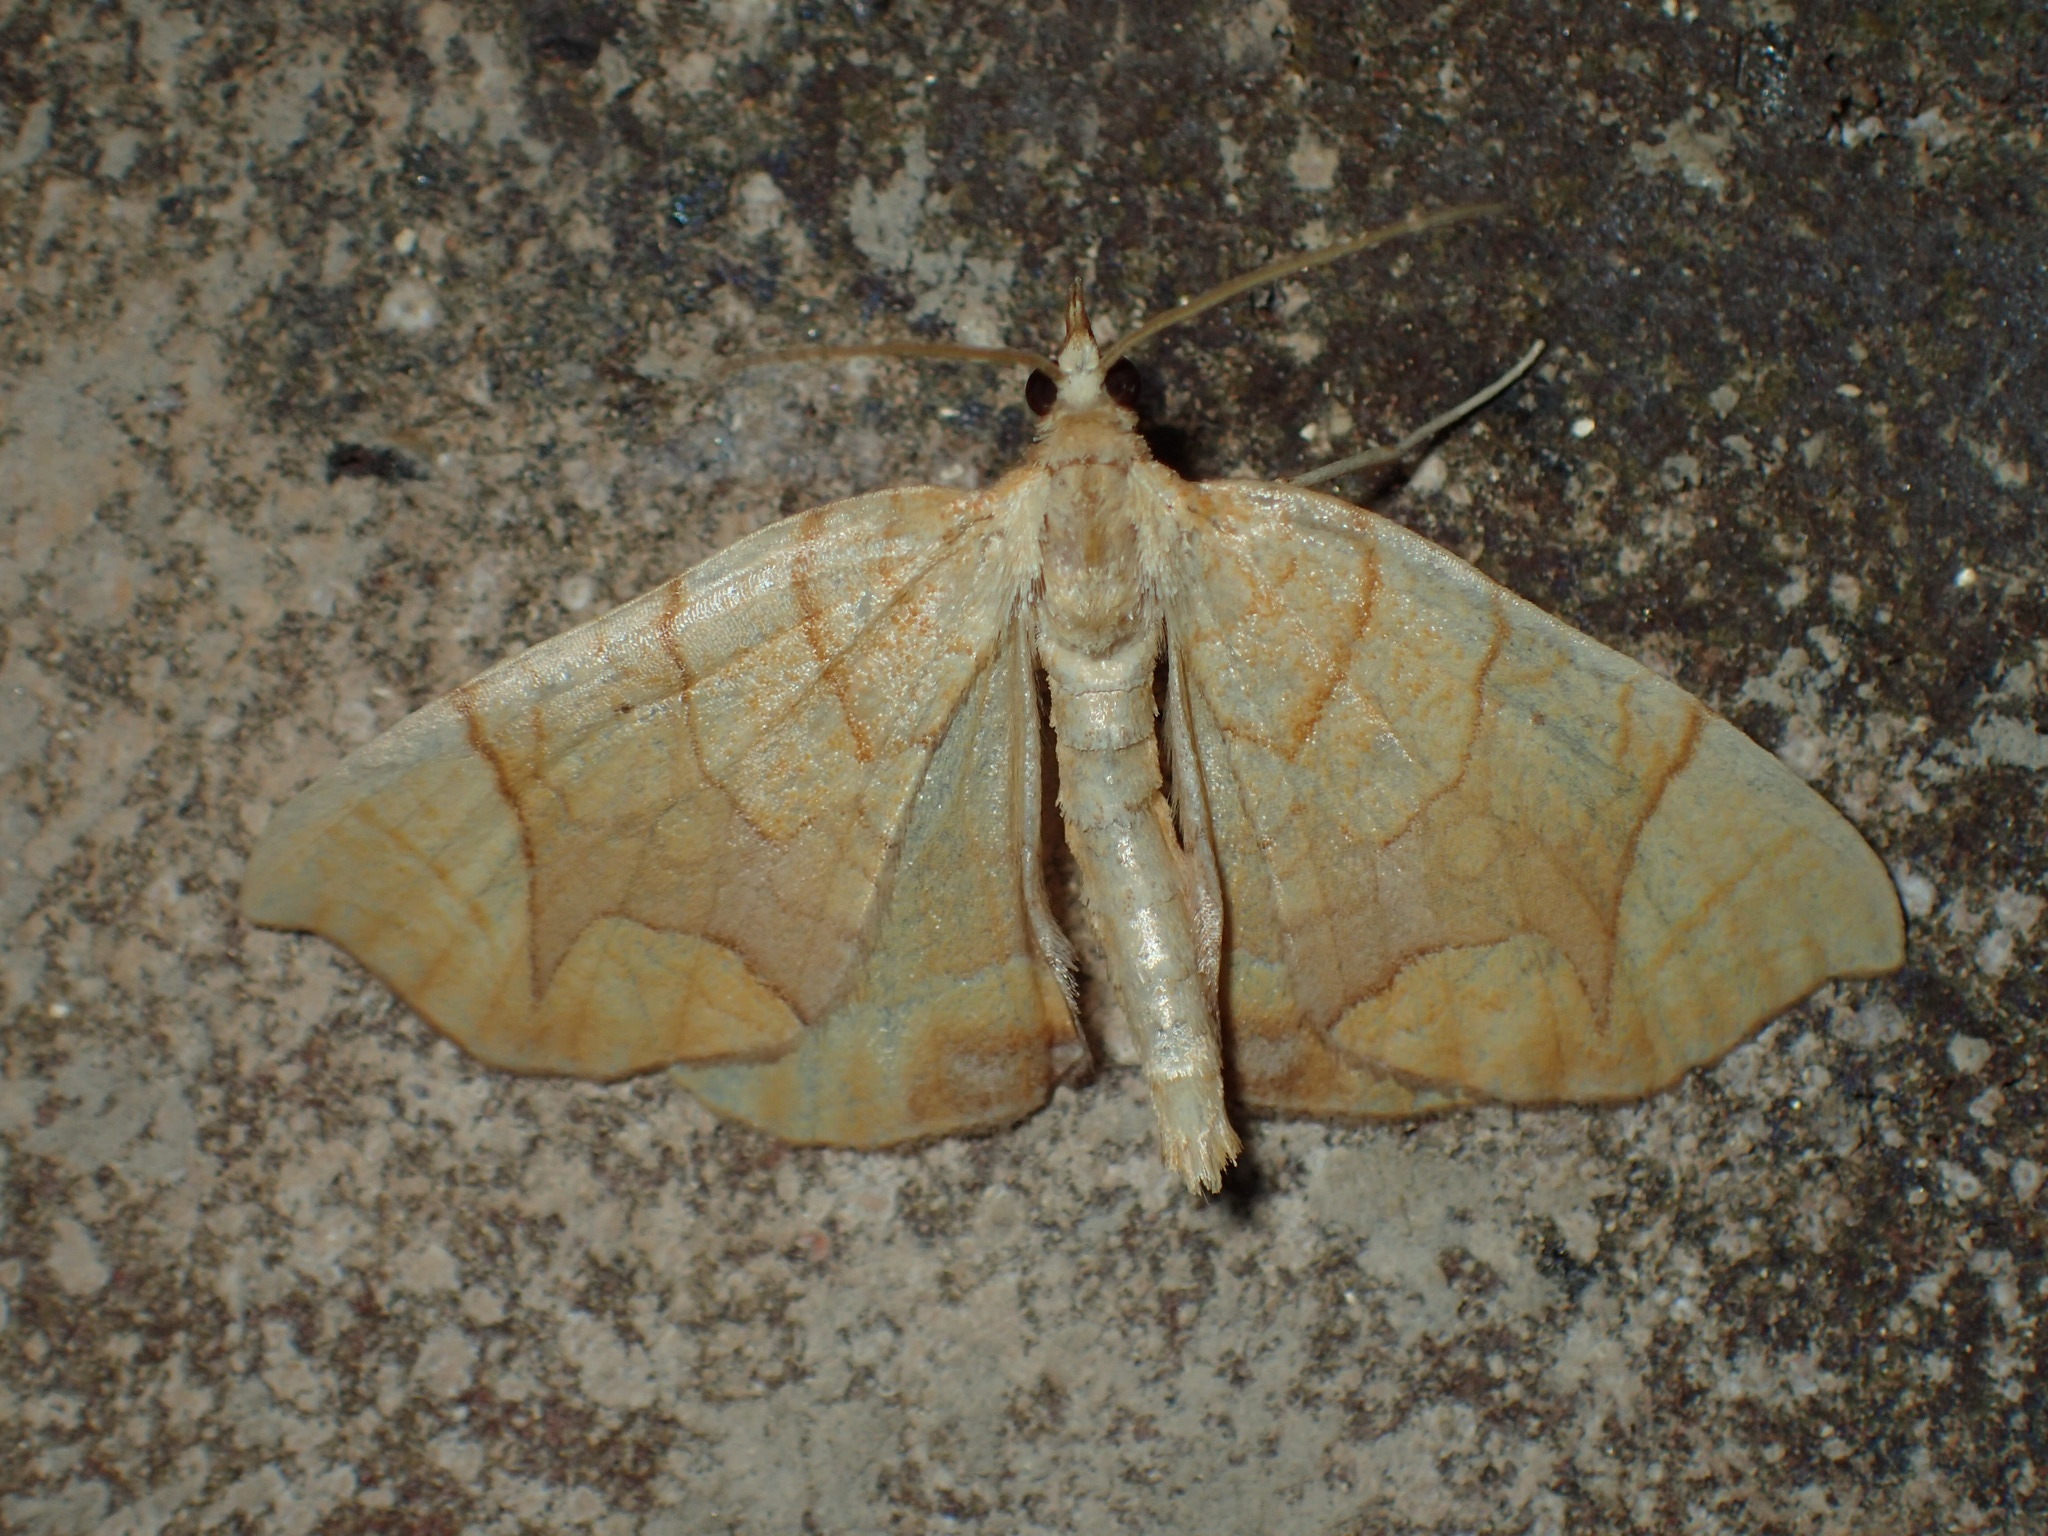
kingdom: Animalia
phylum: Arthropoda
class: Insecta
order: Lepidoptera
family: Geometridae
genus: Eulithis
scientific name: Eulithis
